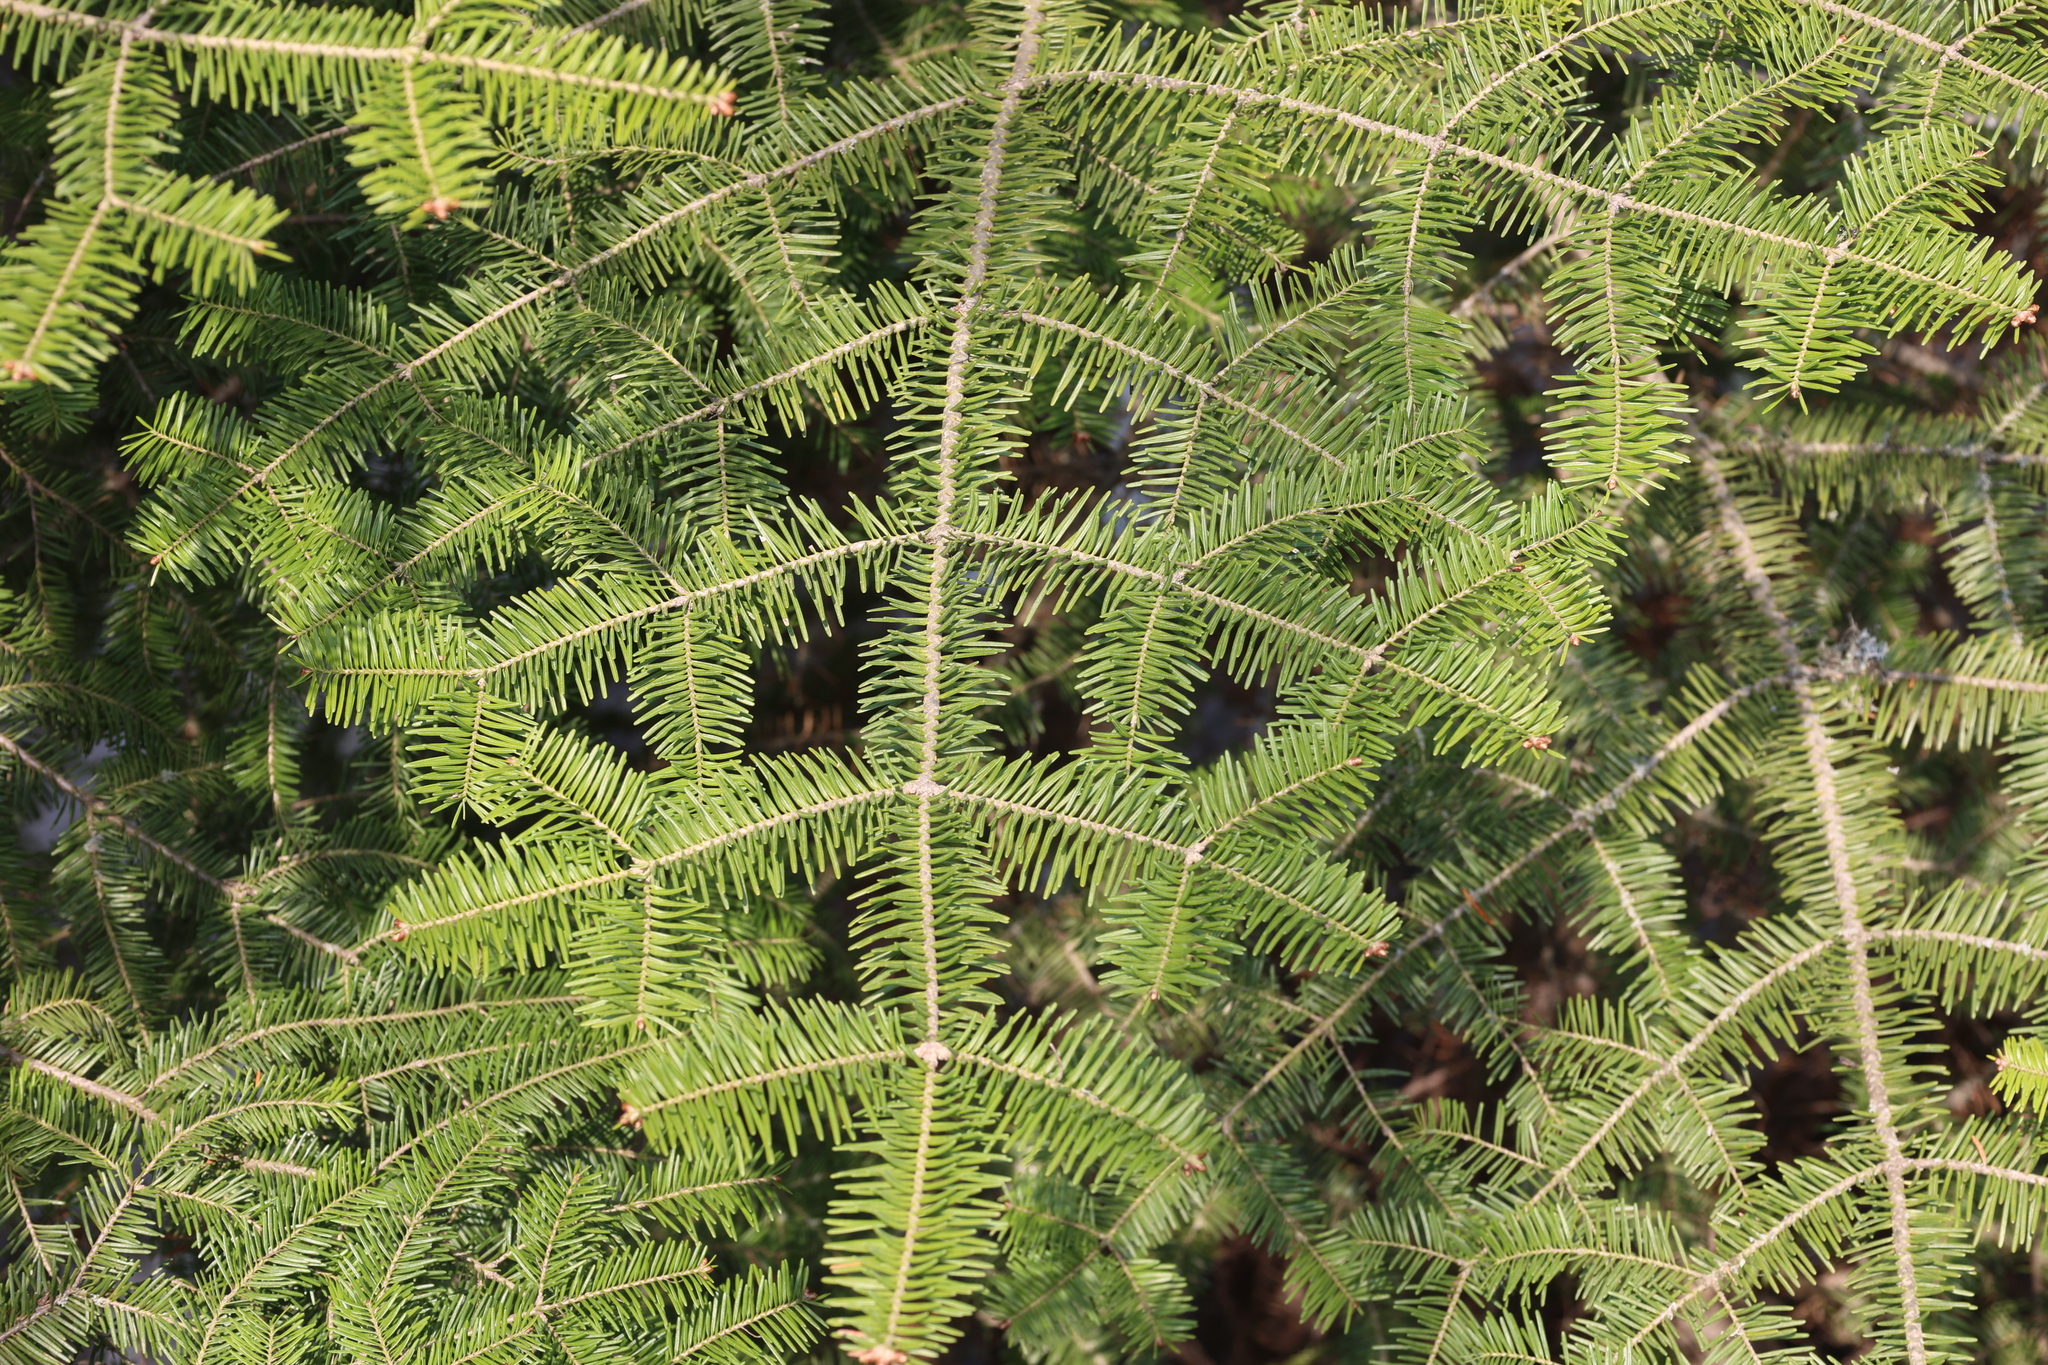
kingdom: Plantae
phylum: Tracheophyta
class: Pinopsida
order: Pinales
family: Pinaceae
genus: Abies
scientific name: Abies balsamea
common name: Balsam fir
